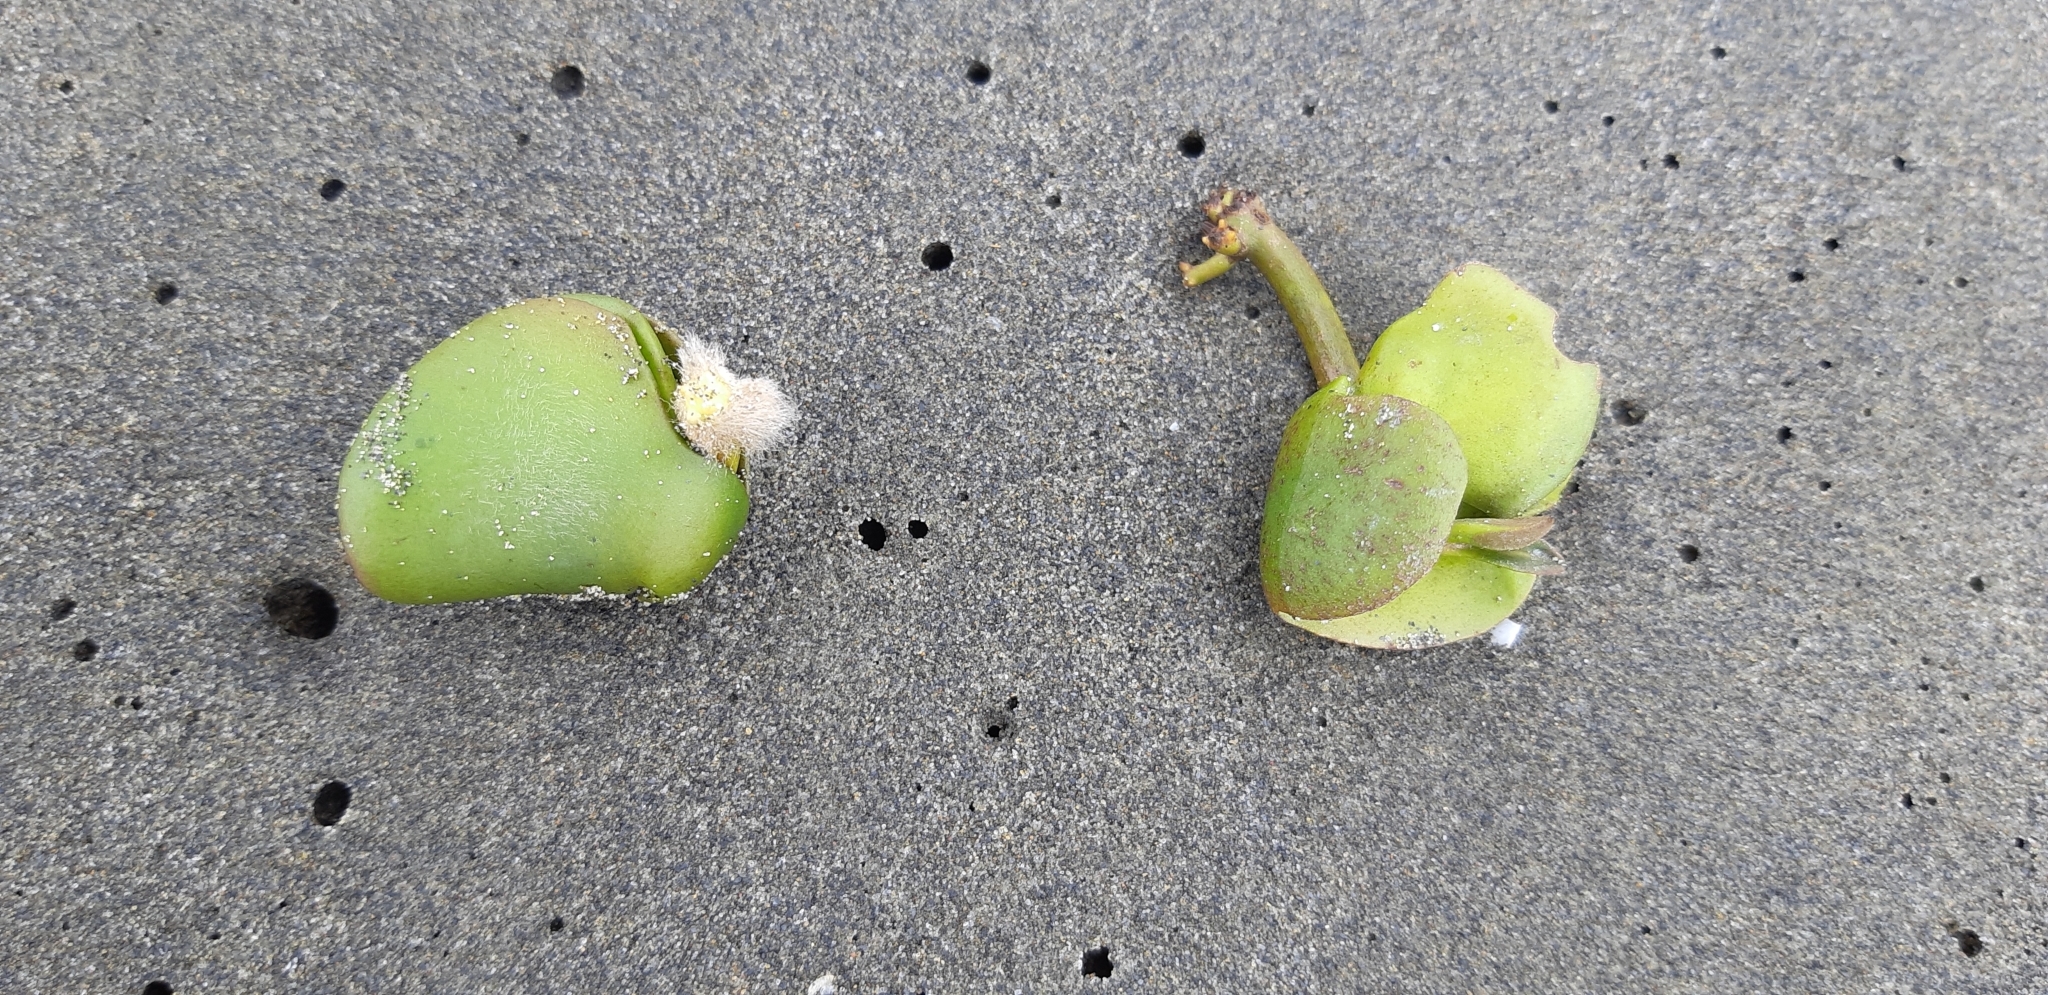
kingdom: Plantae
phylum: Tracheophyta
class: Magnoliopsida
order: Lamiales
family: Acanthaceae
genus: Avicennia
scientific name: Avicennia marina
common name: Gray mangrove
